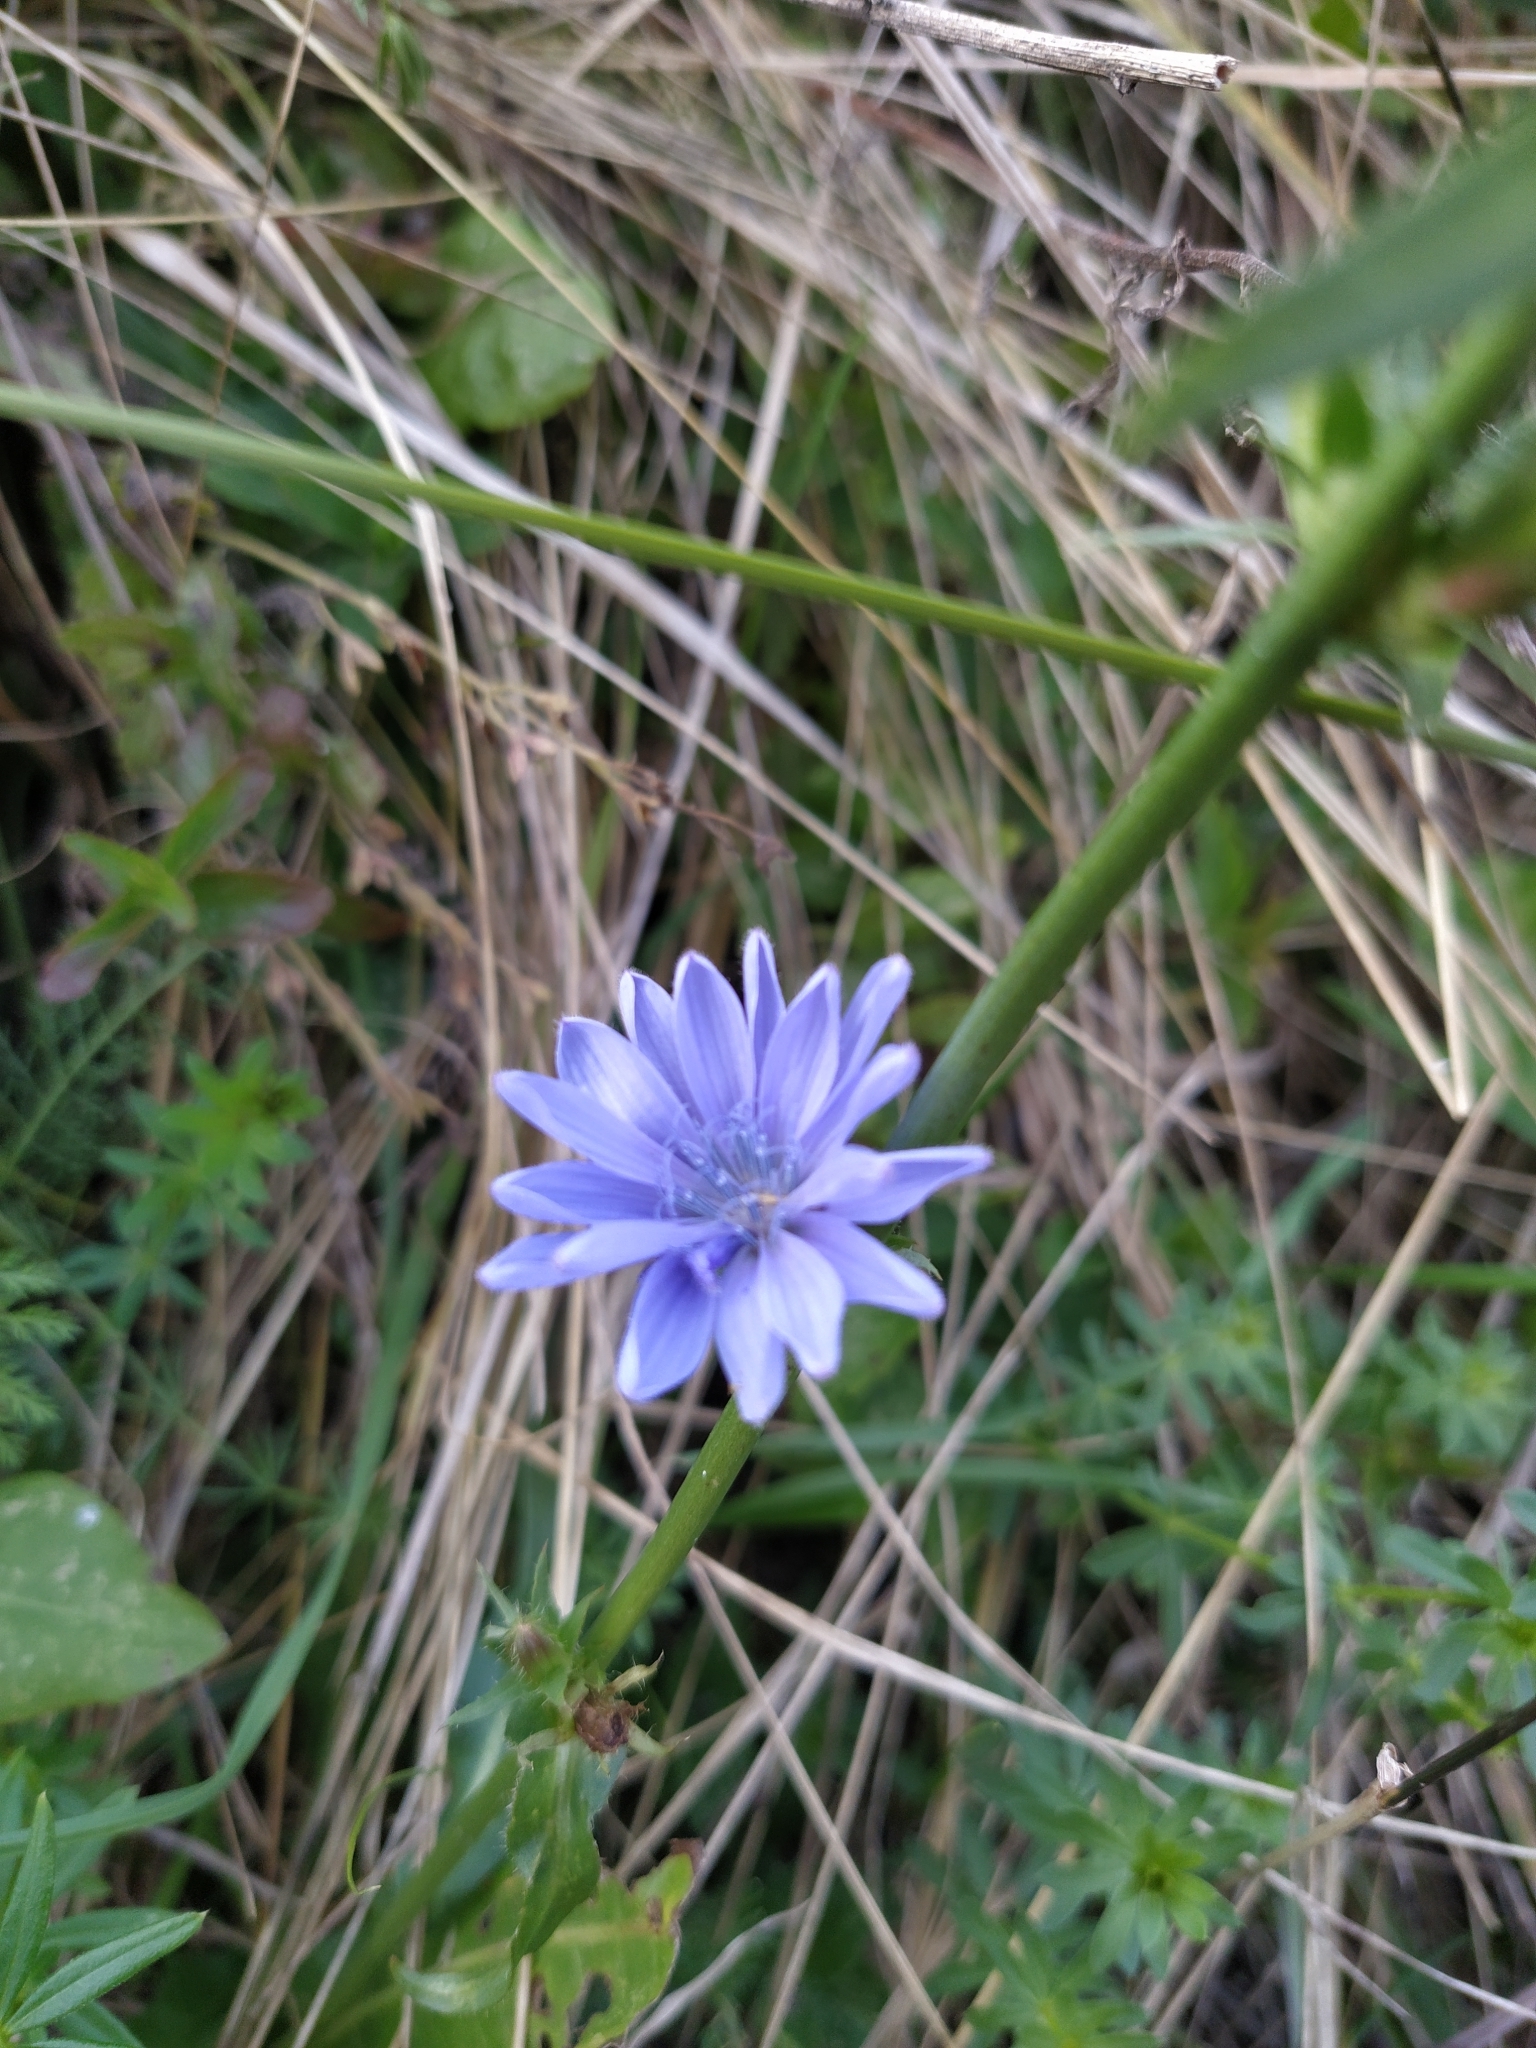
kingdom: Plantae
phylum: Tracheophyta
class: Magnoliopsida
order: Asterales
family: Asteraceae
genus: Cichorium
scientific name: Cichorium intybus
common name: Chicory
